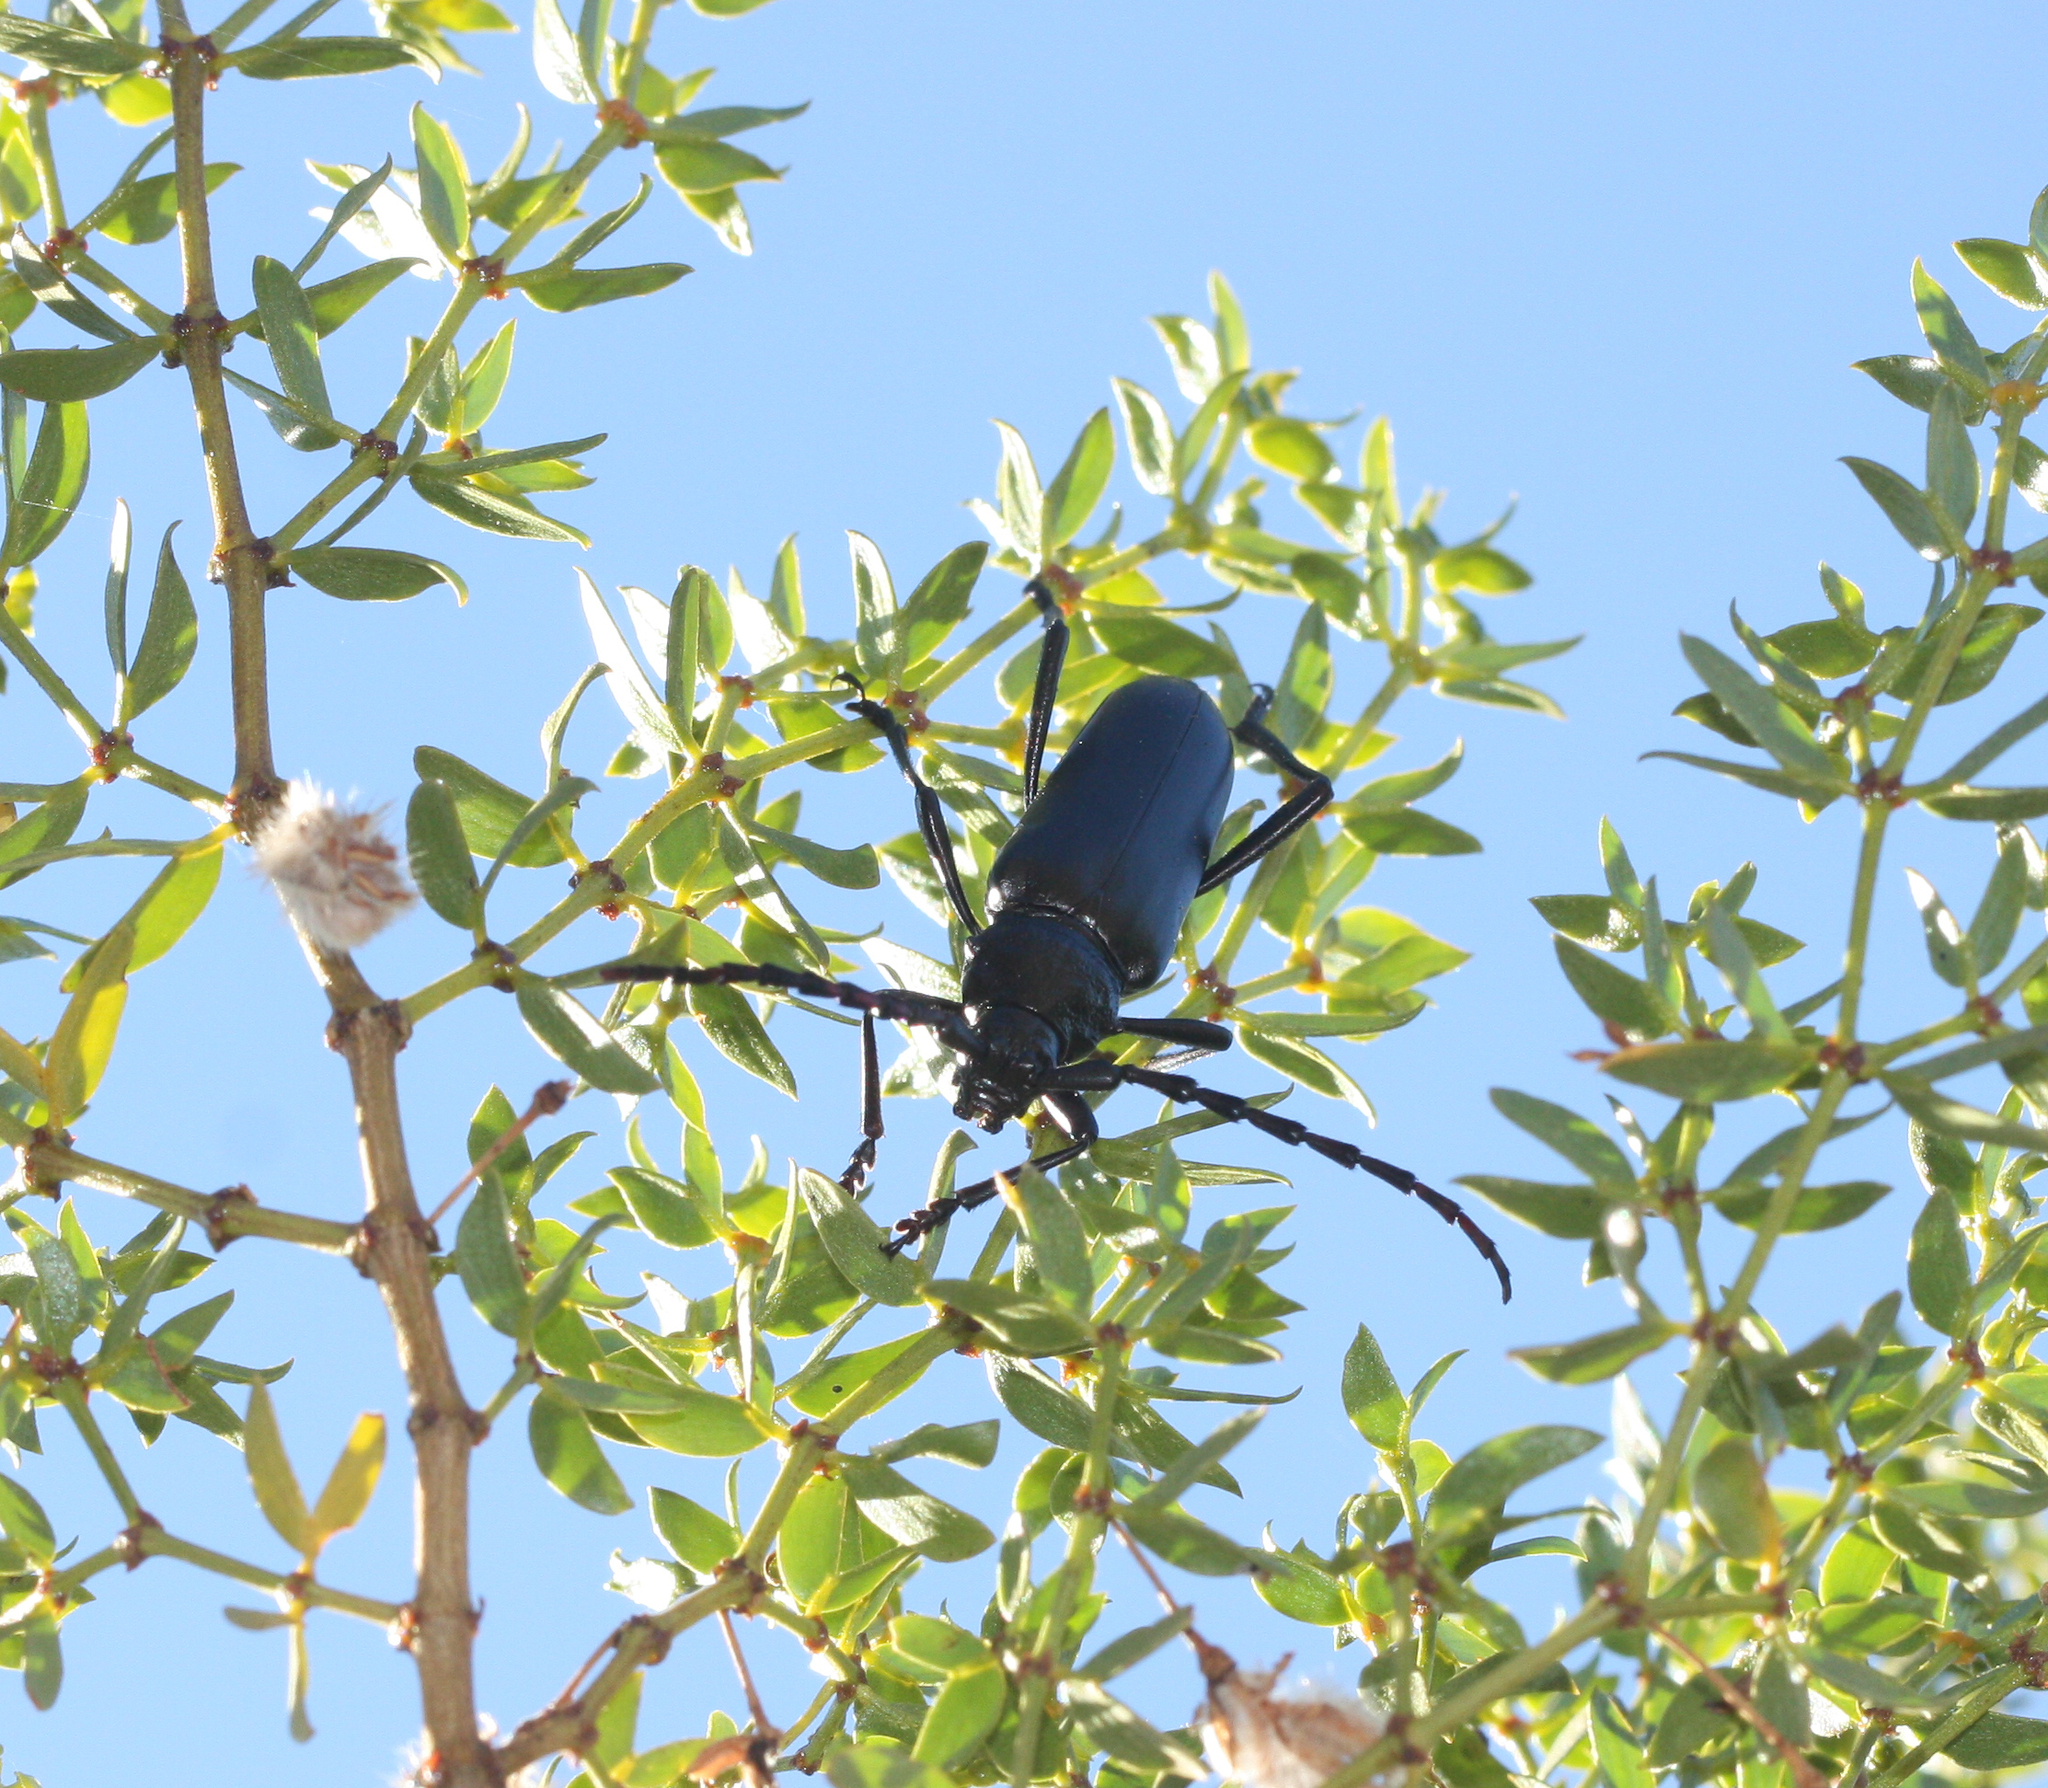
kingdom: Animalia
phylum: Arthropoda
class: Insecta
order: Coleoptera
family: Cerambycidae
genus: Stenaspis
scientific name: Stenaspis solitaria
